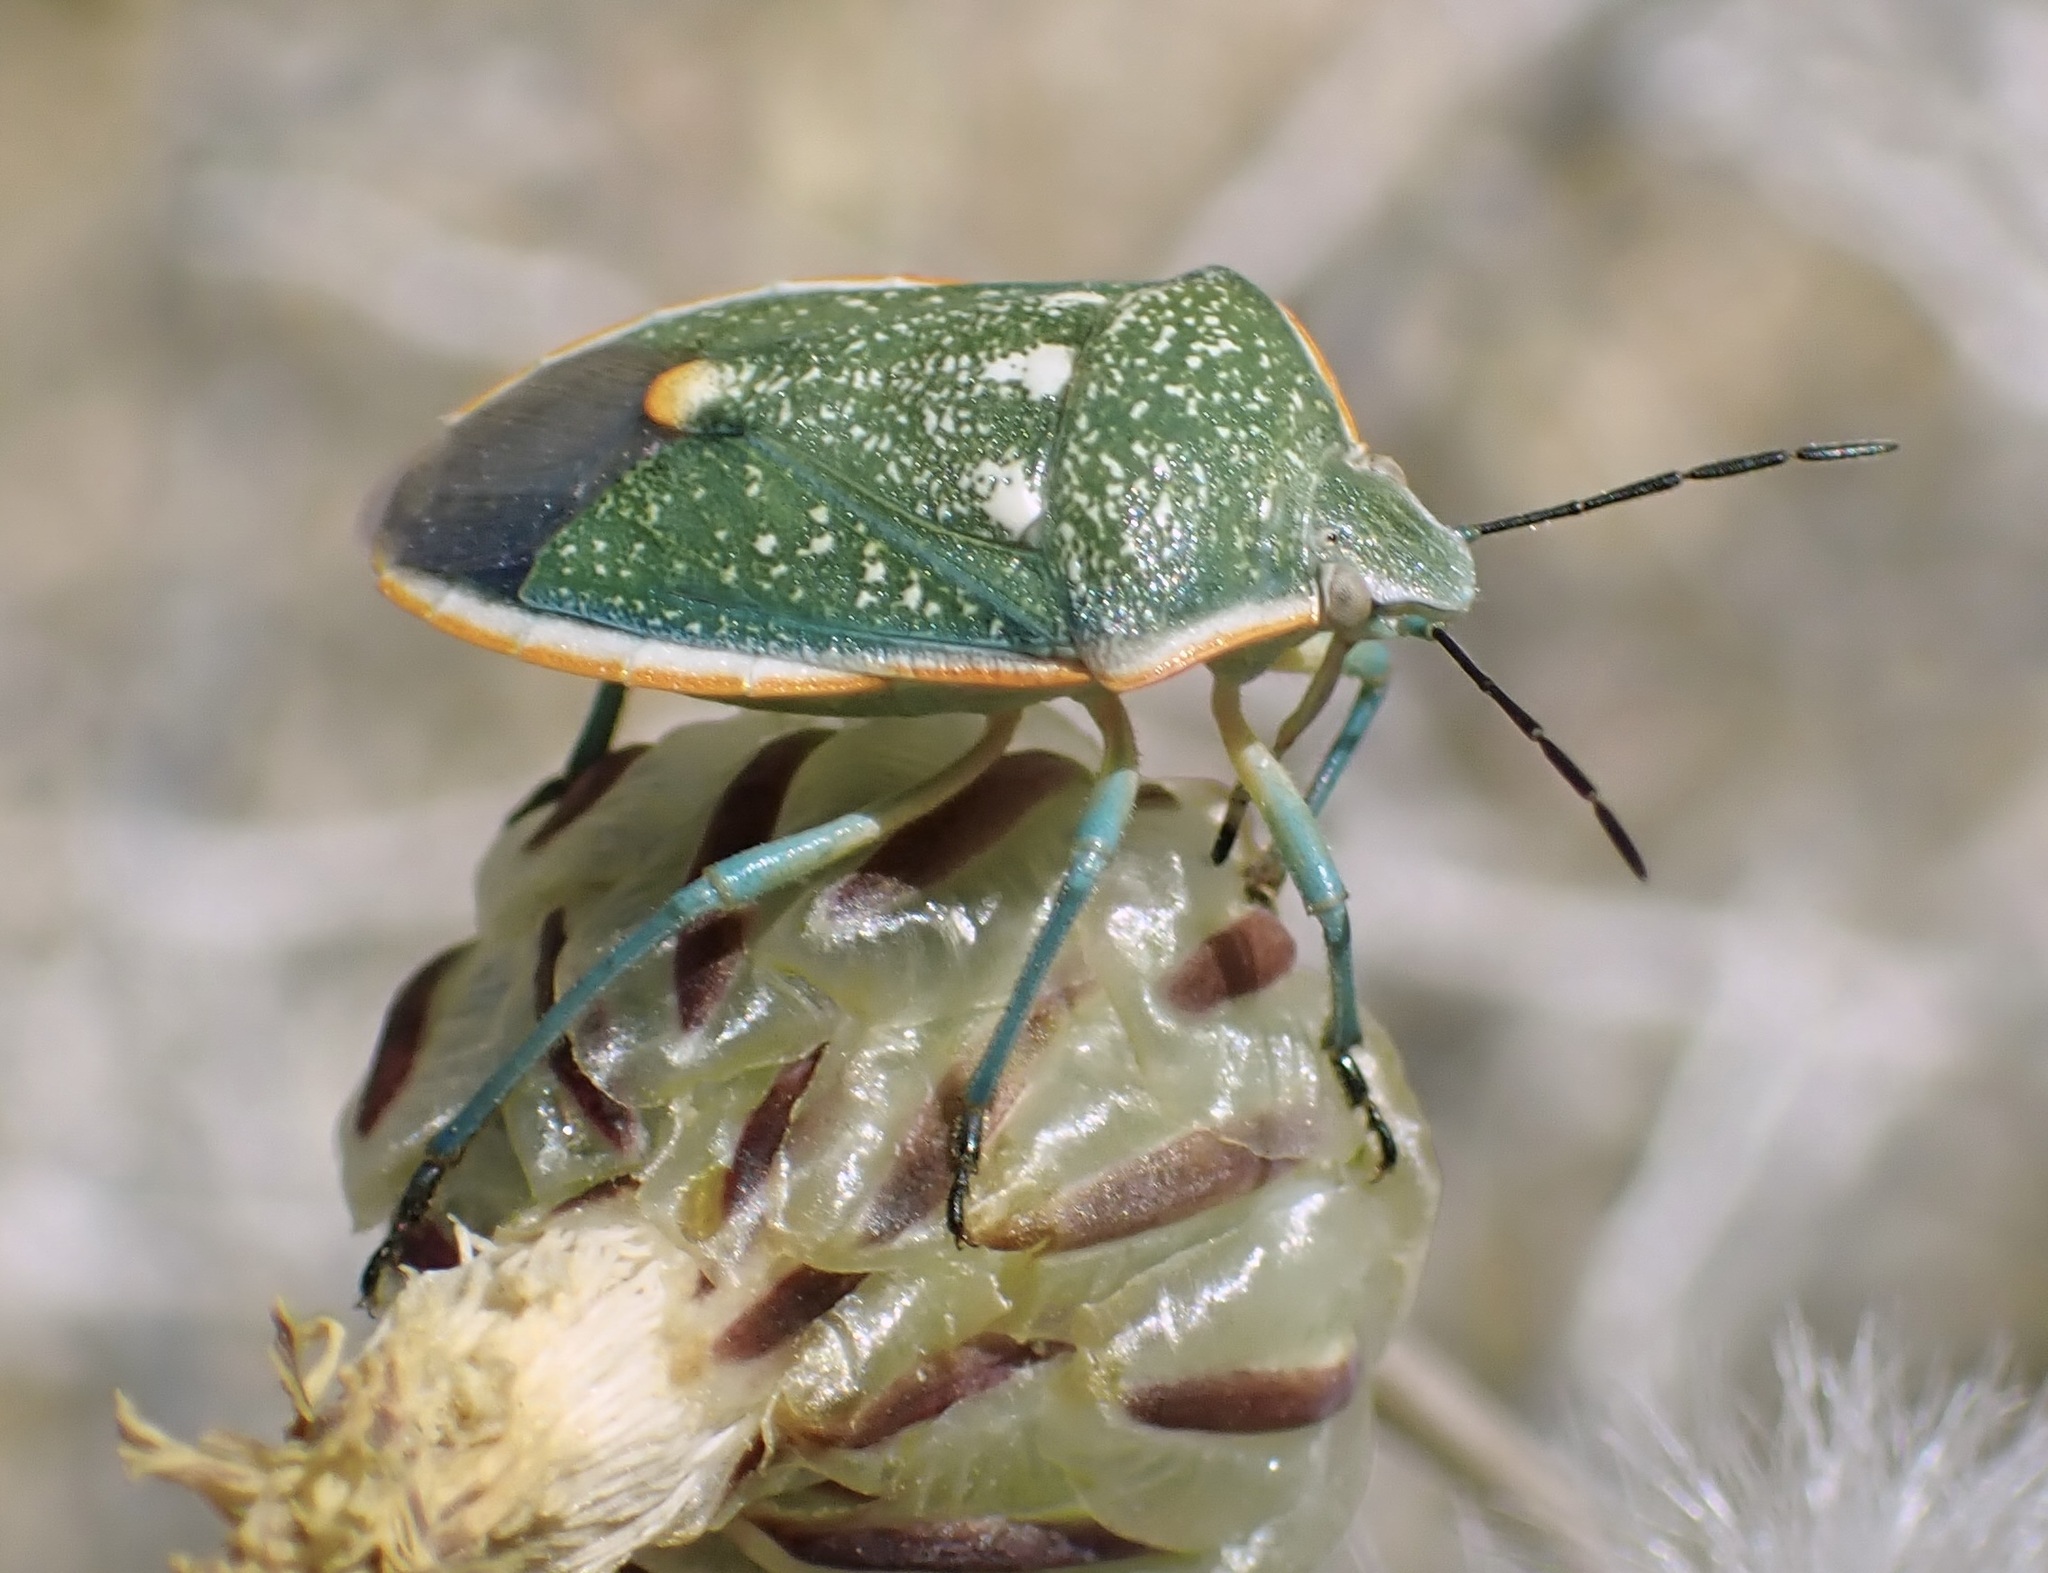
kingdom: Animalia
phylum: Arthropoda
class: Insecta
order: Hemiptera
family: Pentatomidae
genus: Chlorochroa
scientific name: Chlorochroa sayi
